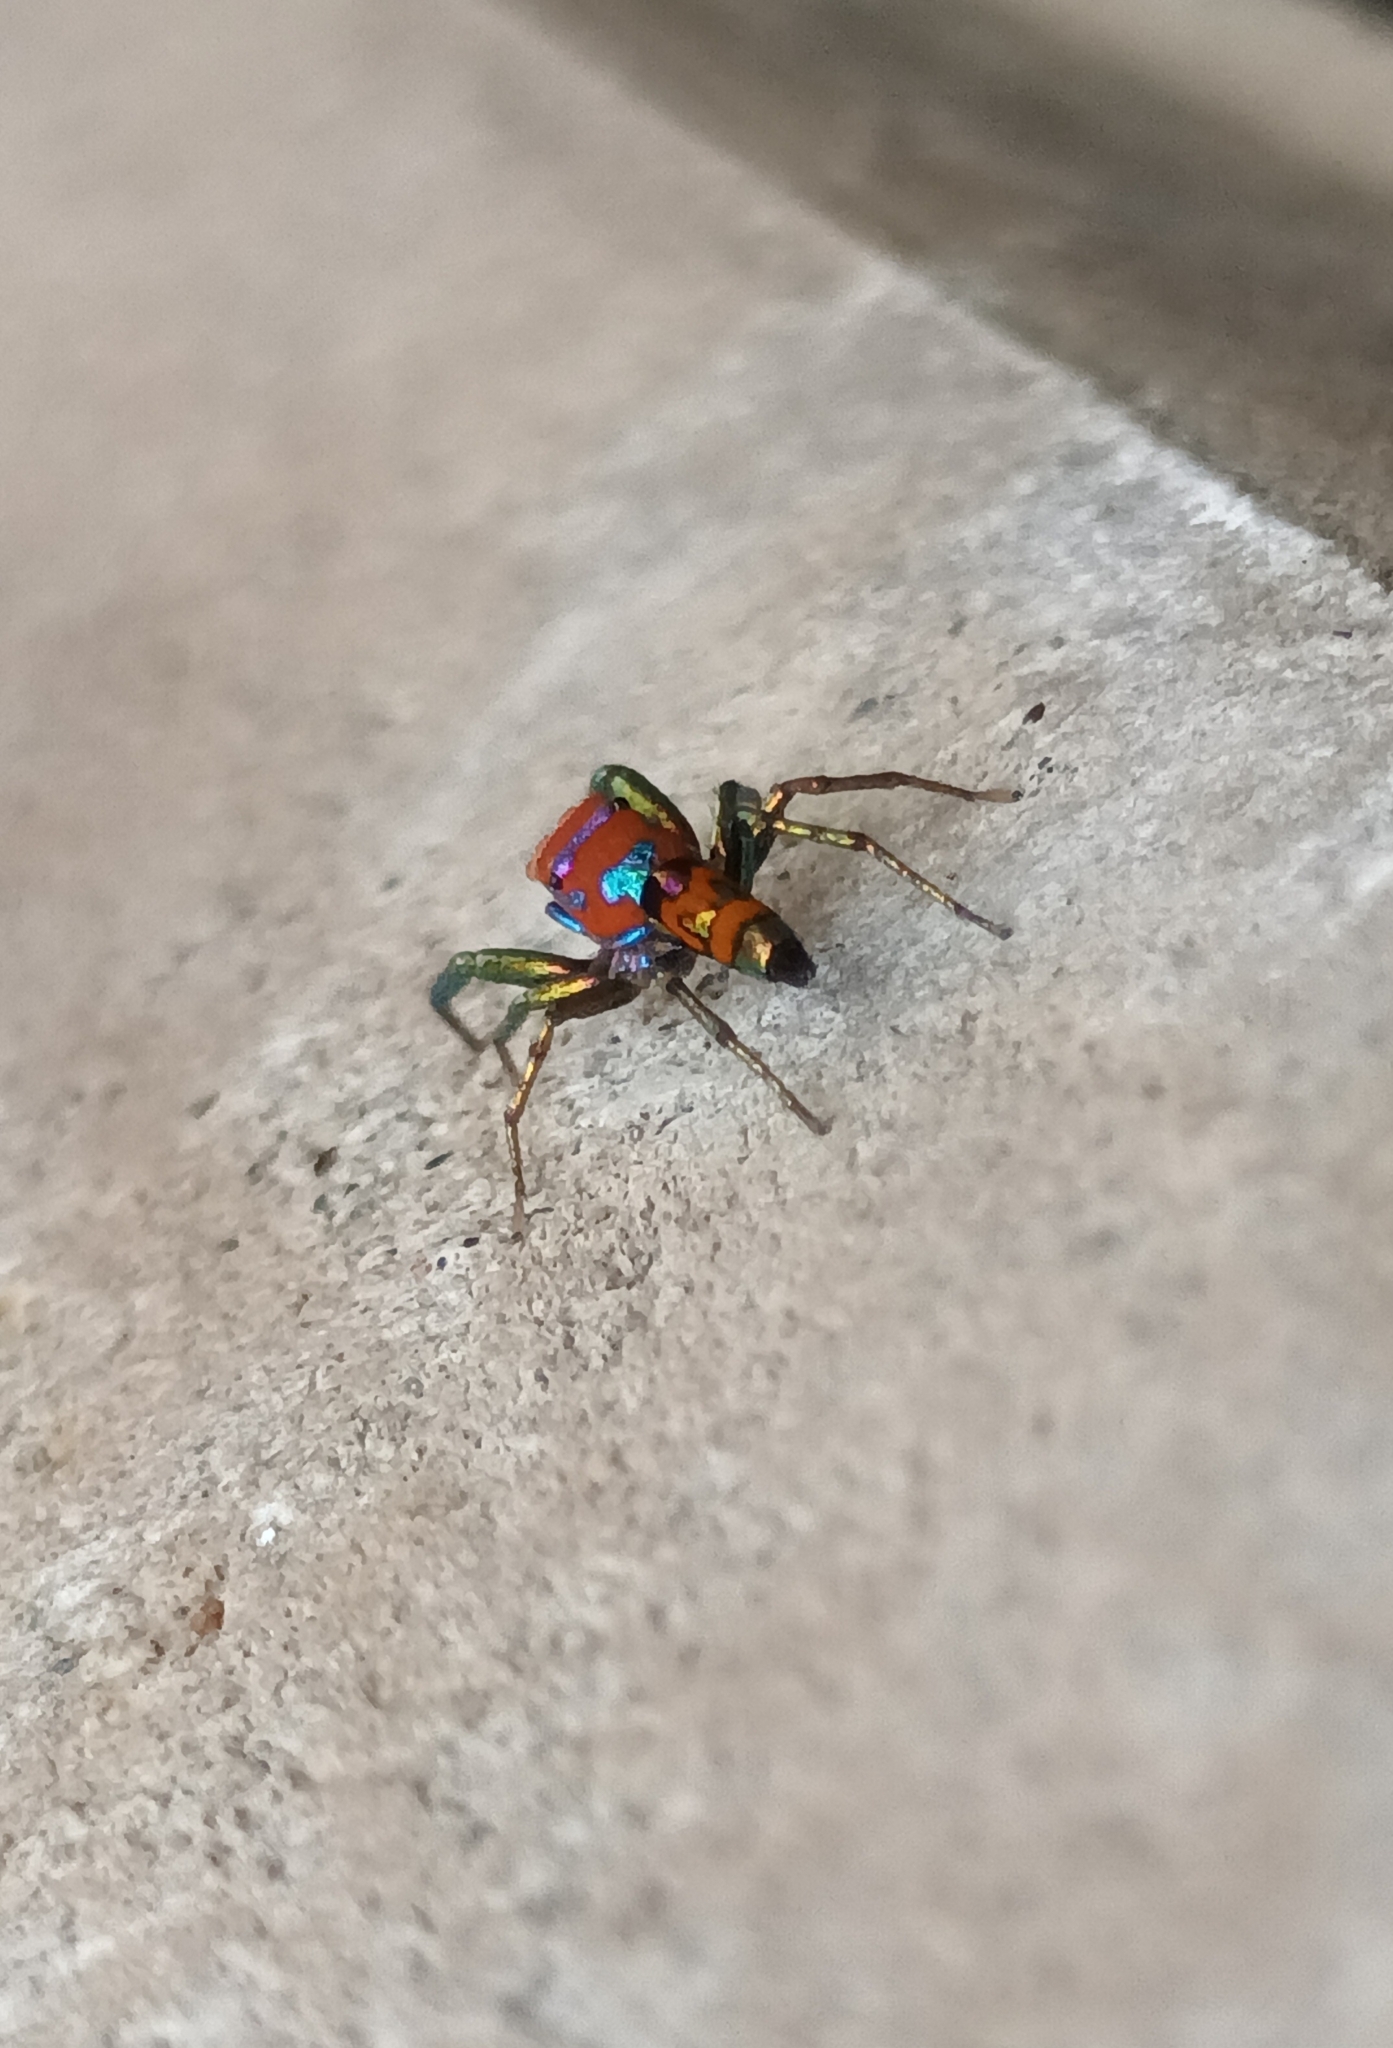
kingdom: Animalia
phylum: Arthropoda
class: Arachnida
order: Araneae
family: Salticidae
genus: Chrysilla
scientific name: Chrysilla volupe
